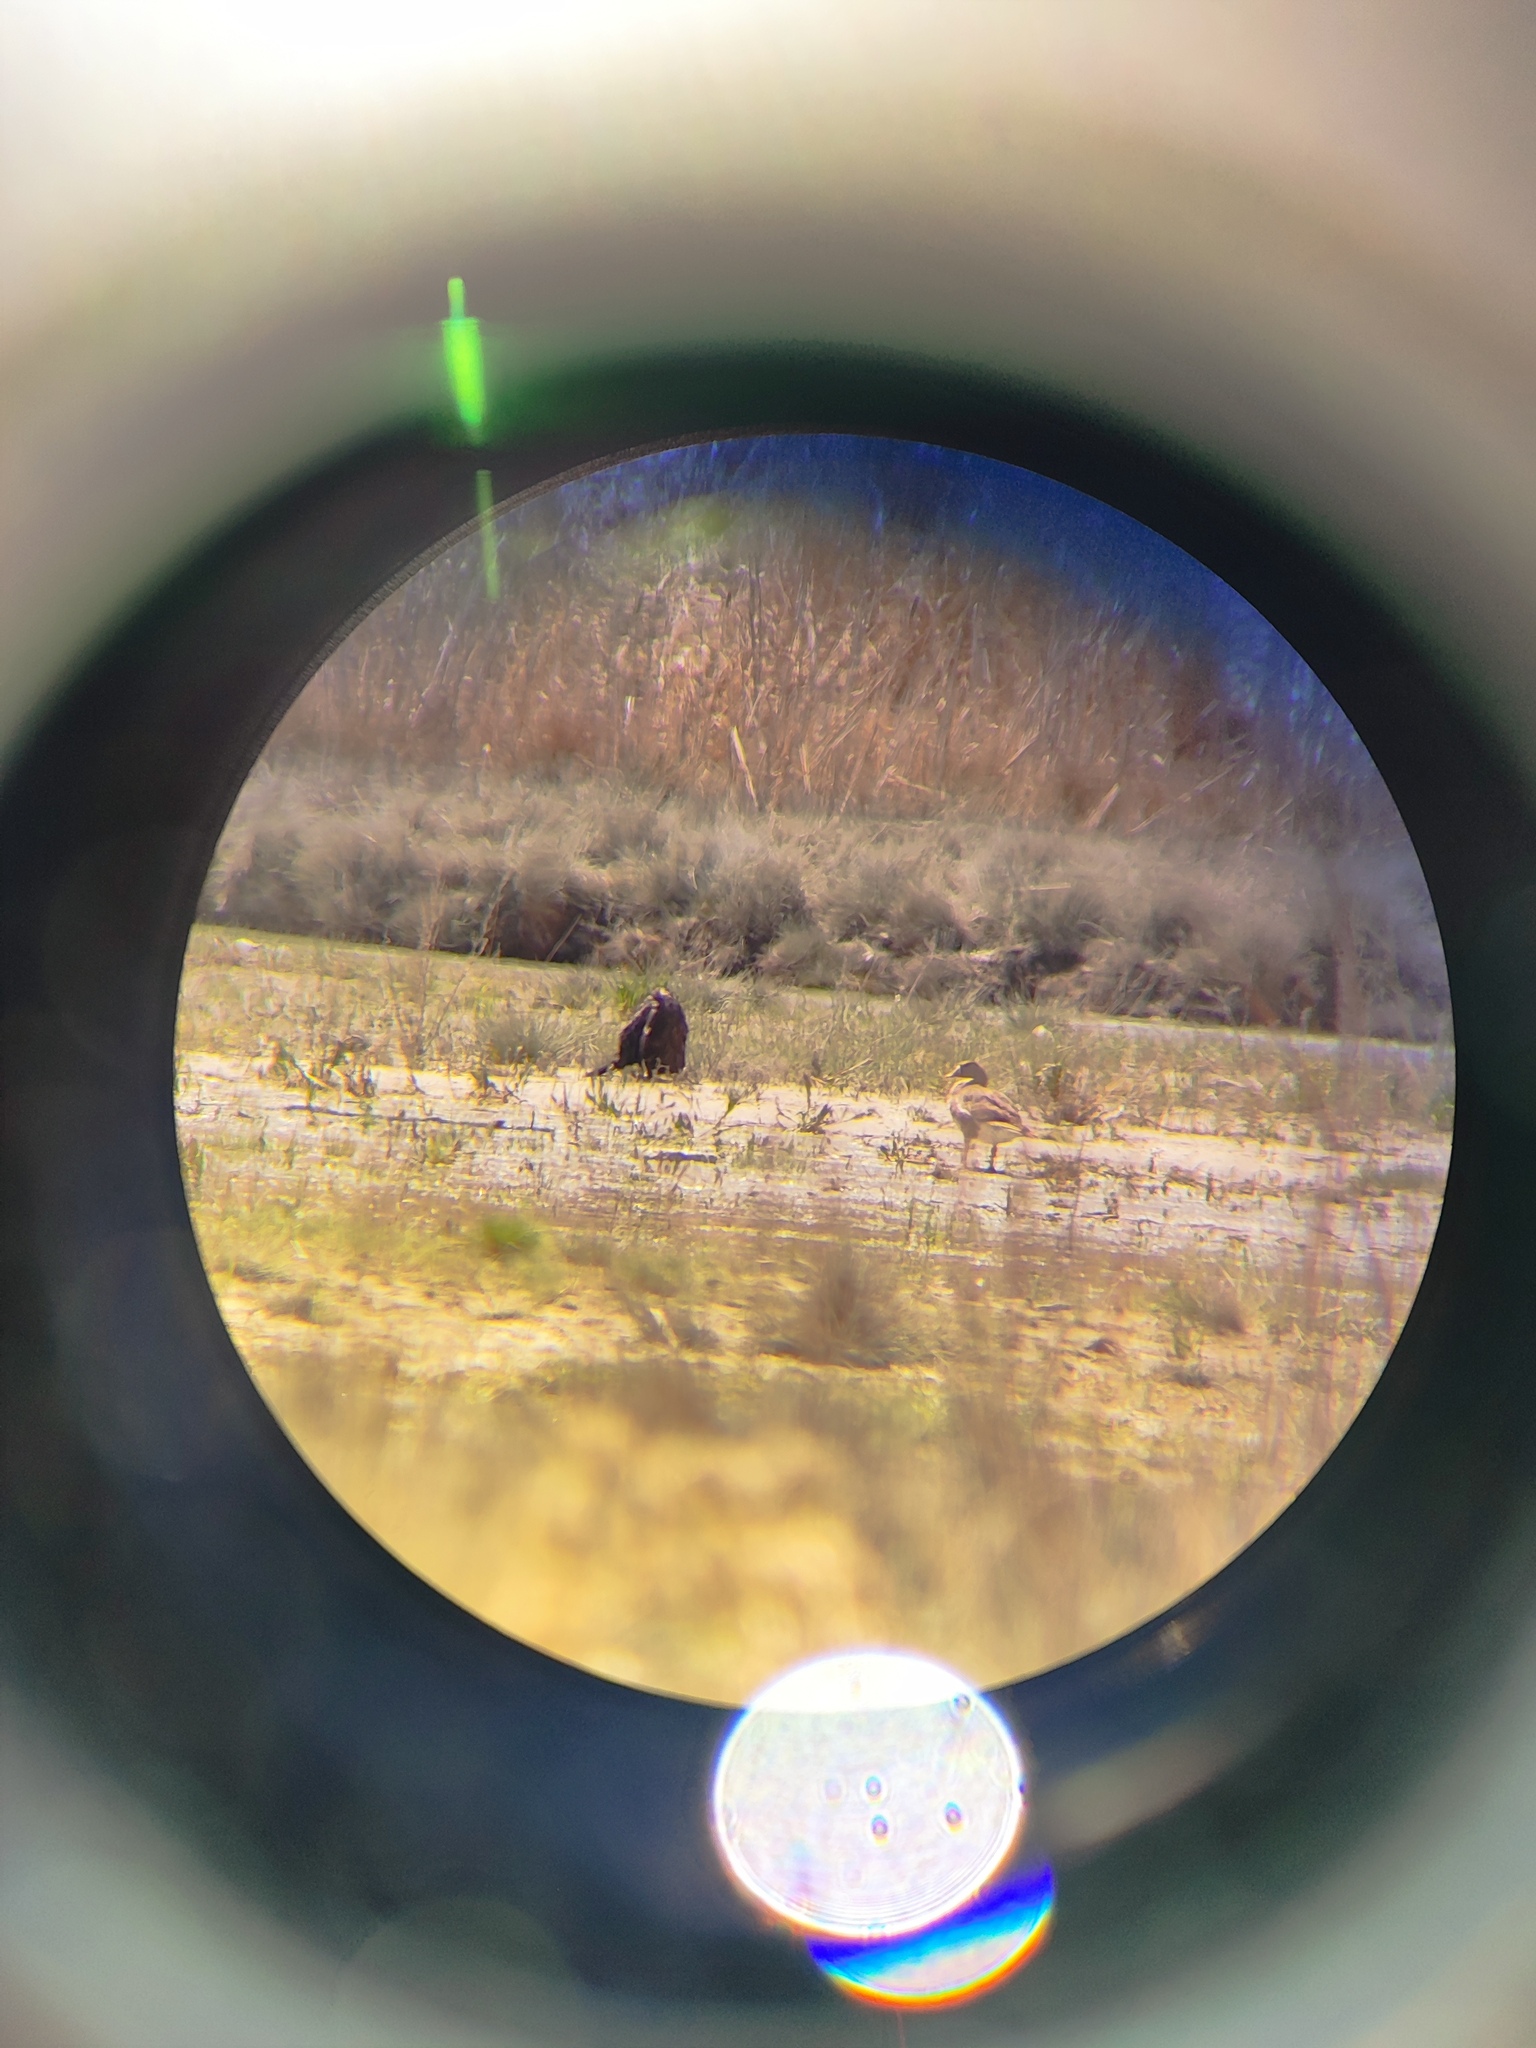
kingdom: Animalia
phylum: Chordata
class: Aves
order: Anseriformes
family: Anatidae
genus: Anser
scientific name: Anser albifrons
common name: Greater white-fronted goose
